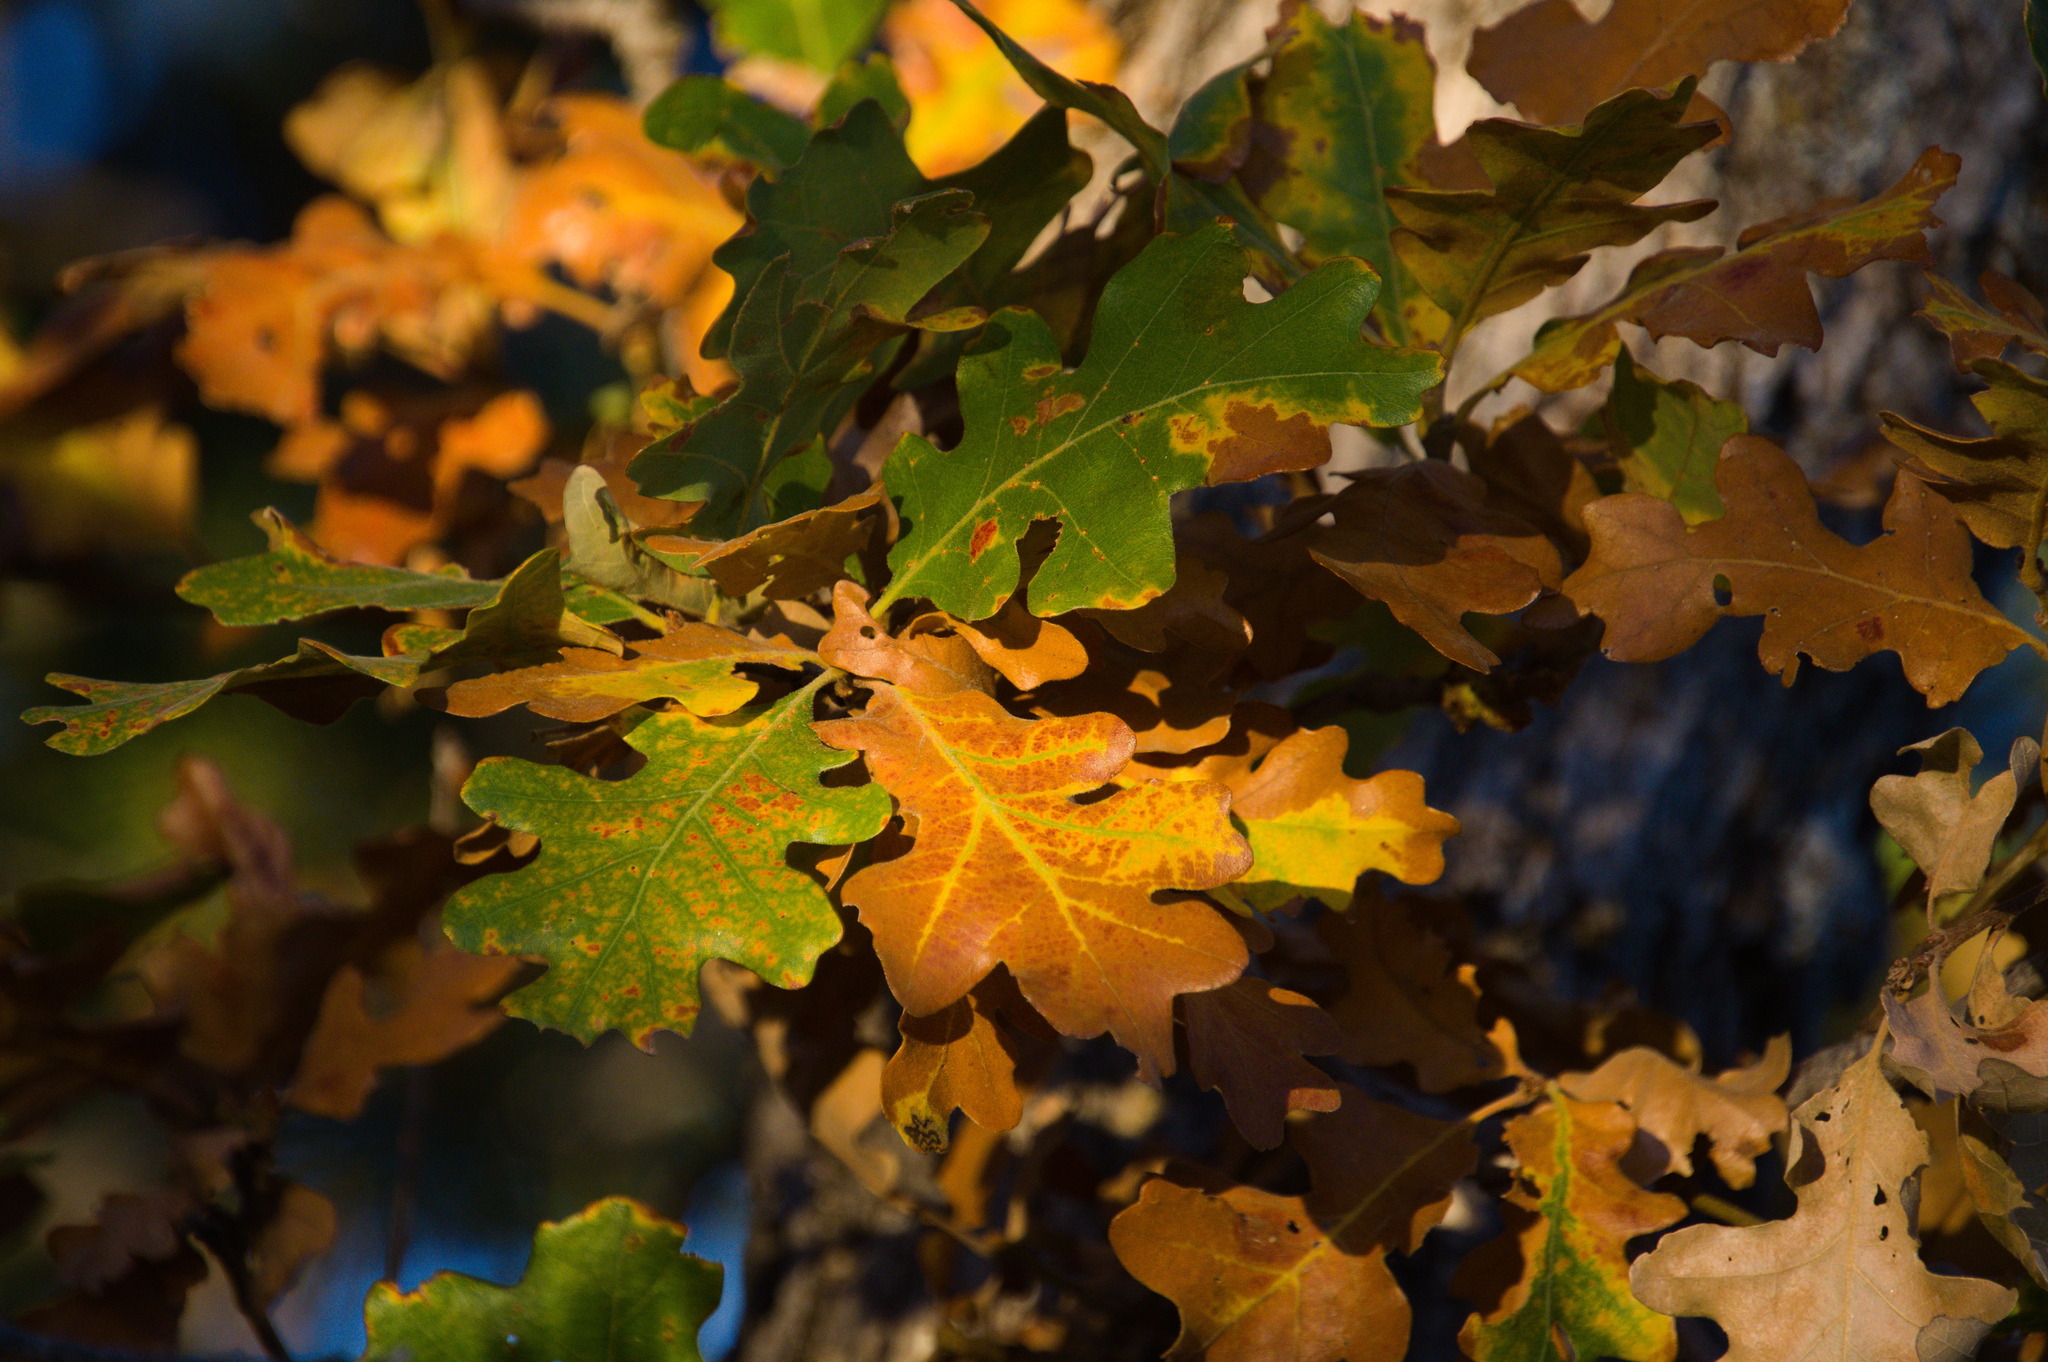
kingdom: Plantae
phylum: Tracheophyta
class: Magnoliopsida
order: Fagales
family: Fagaceae
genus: Quercus
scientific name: Quercus gambelii
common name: Gambel oak
